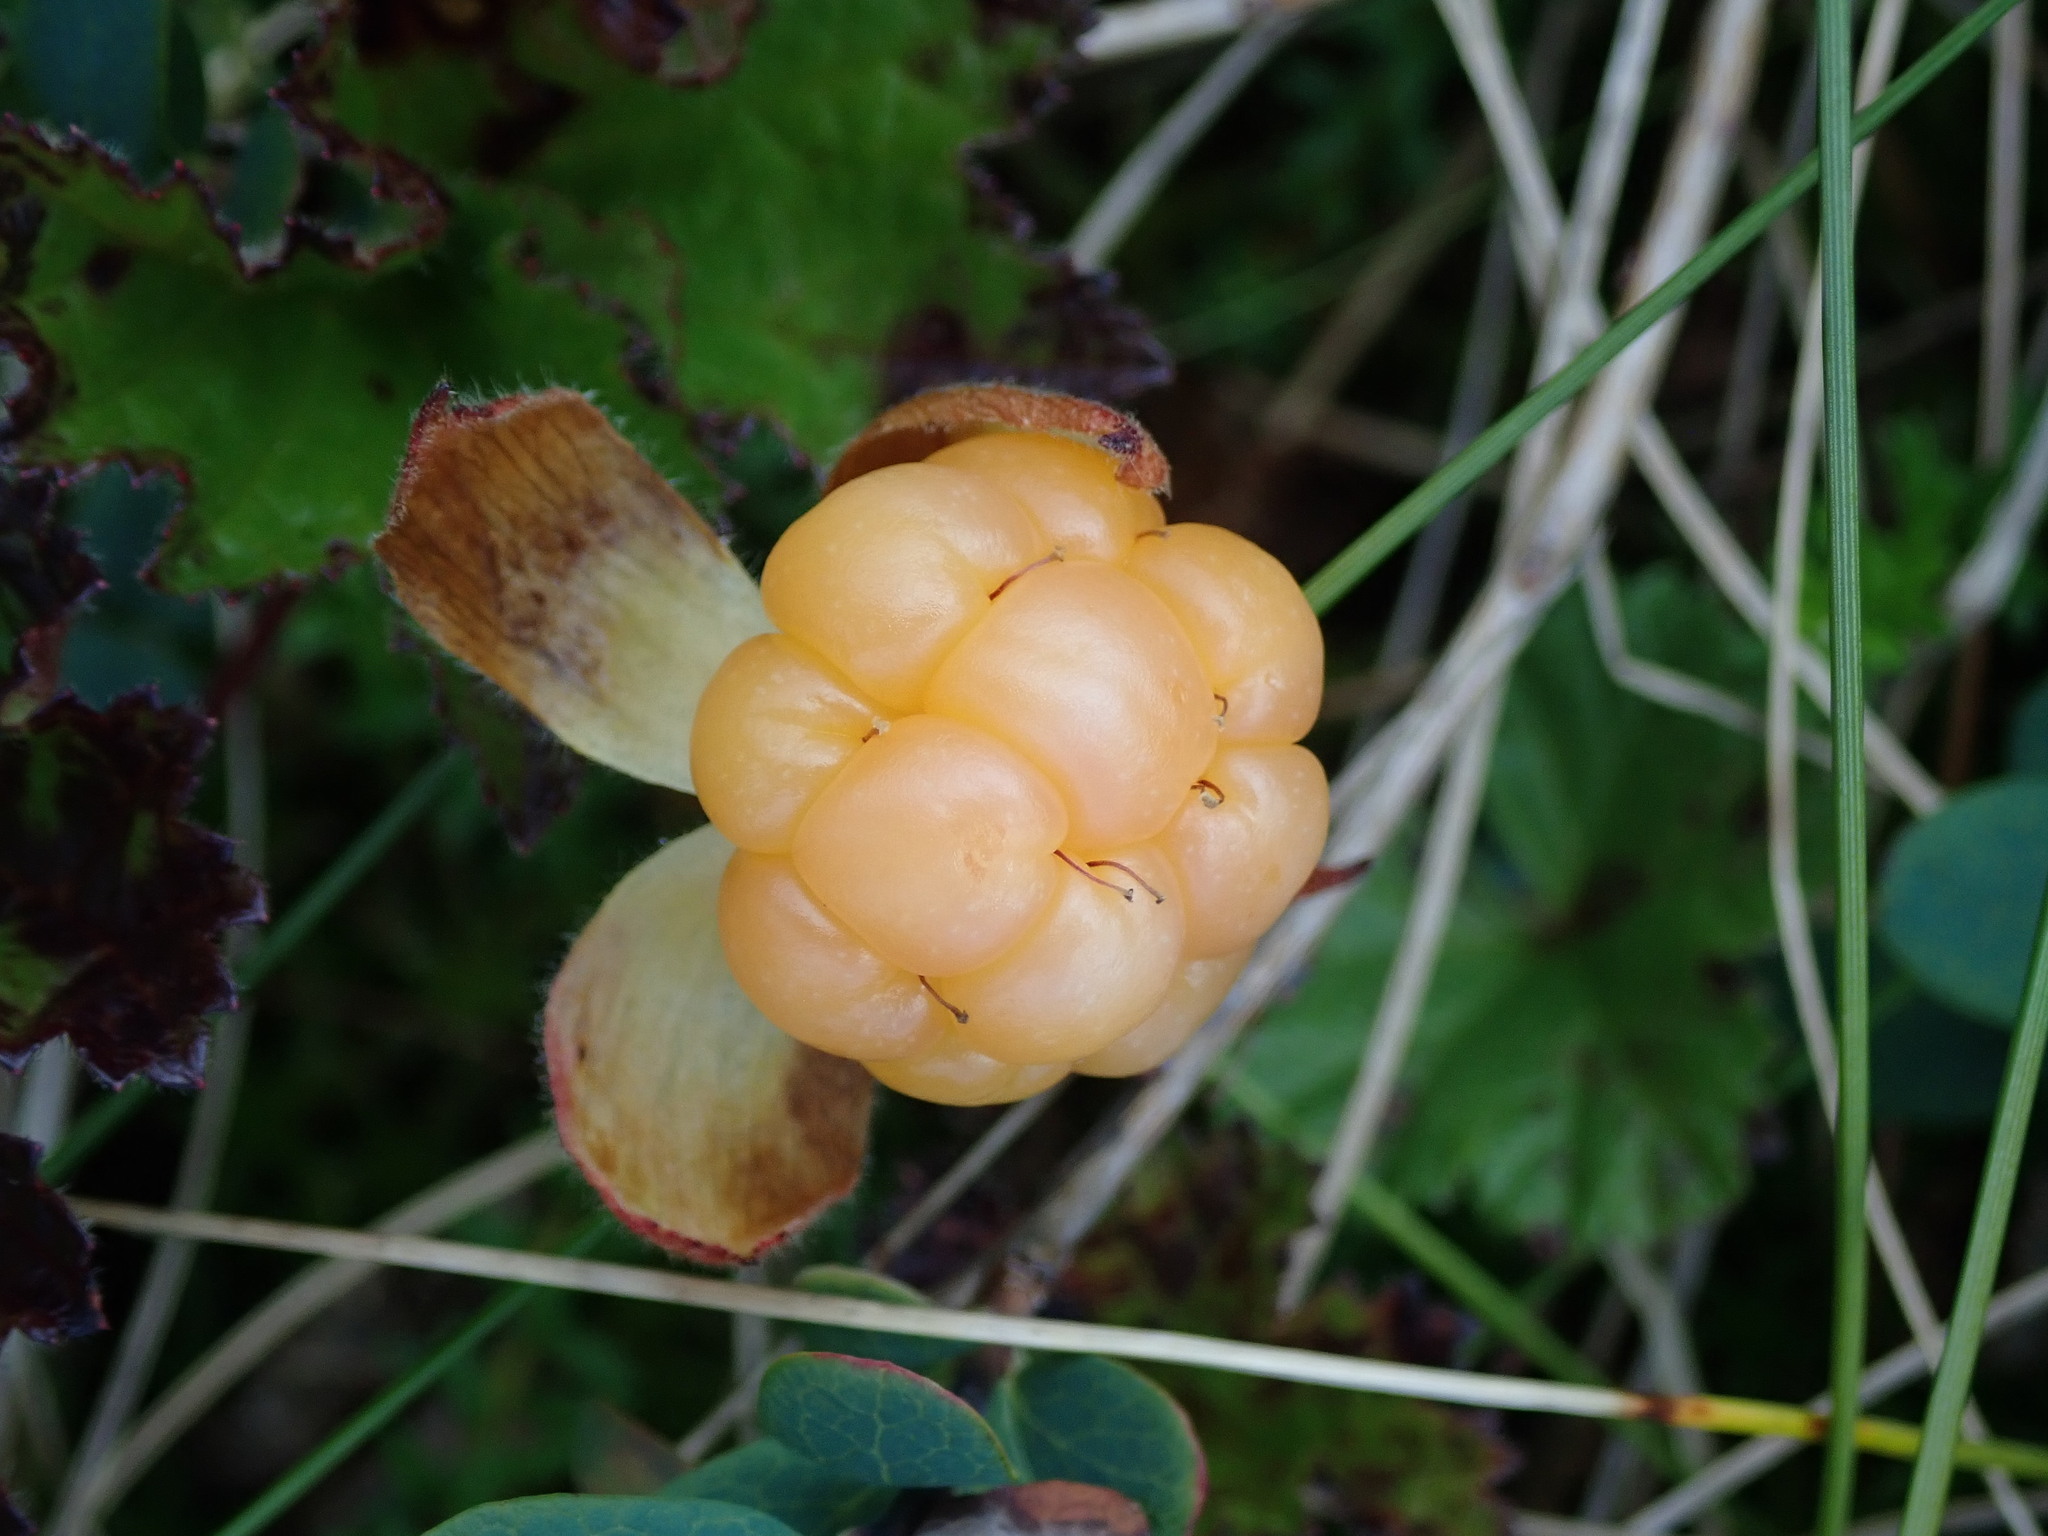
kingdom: Plantae
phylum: Tracheophyta
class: Magnoliopsida
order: Rosales
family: Rosaceae
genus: Rubus
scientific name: Rubus chamaemorus
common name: Cloudberry
